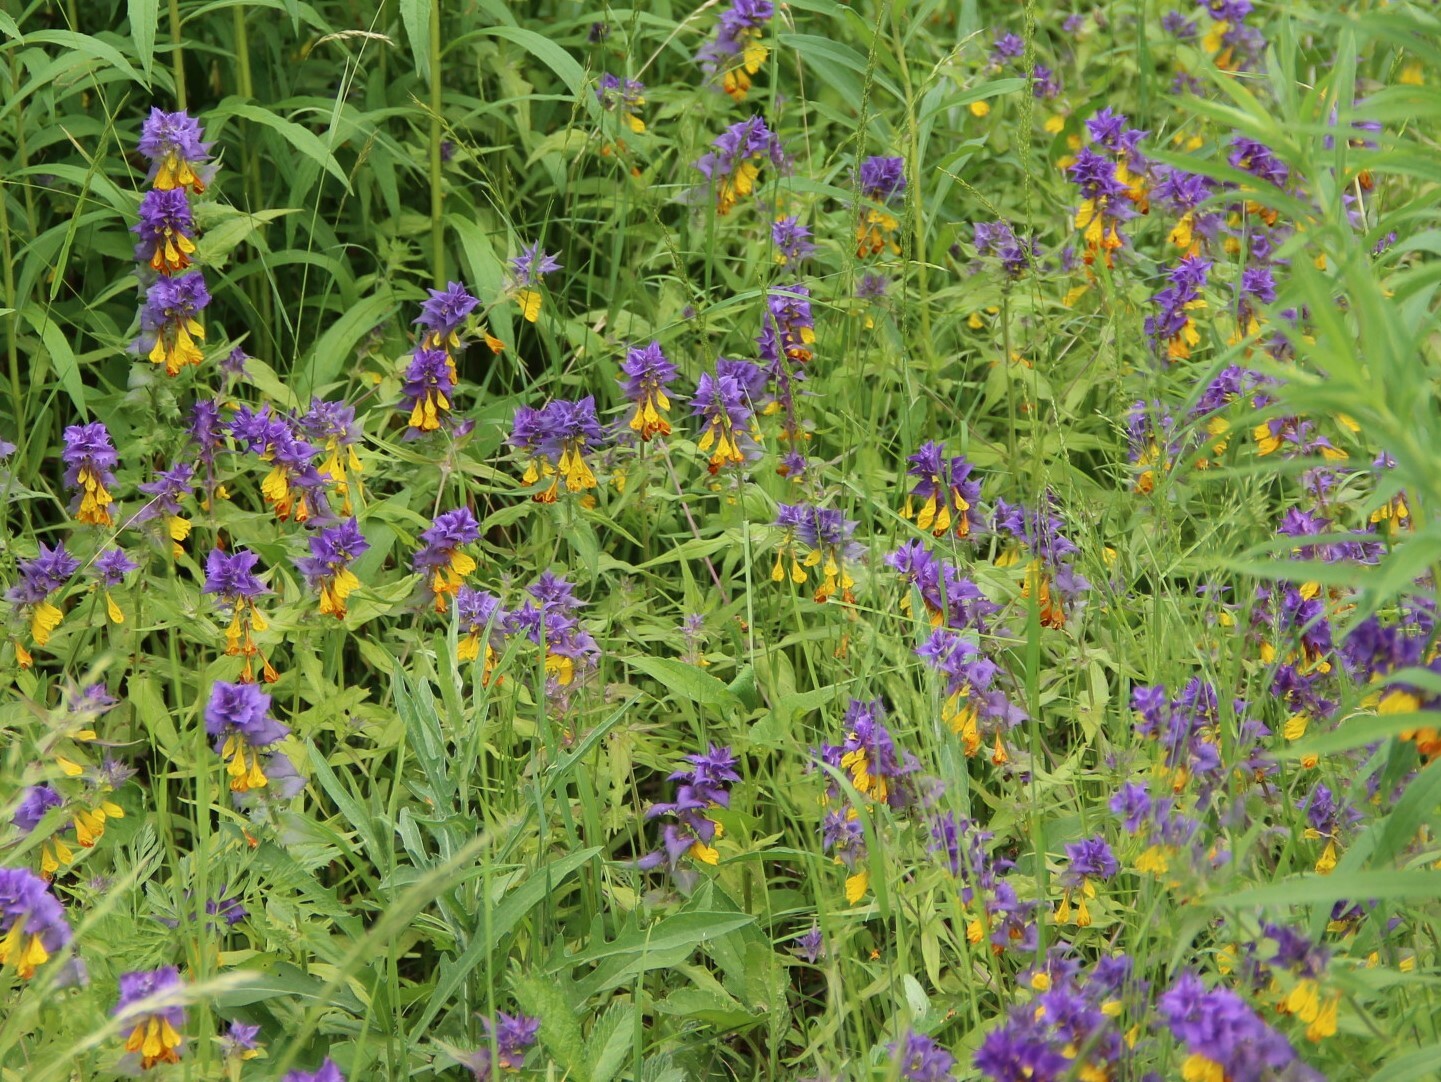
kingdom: Plantae
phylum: Tracheophyta
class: Magnoliopsida
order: Lamiales
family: Orobanchaceae
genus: Melampyrum
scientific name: Melampyrum nemorosum
